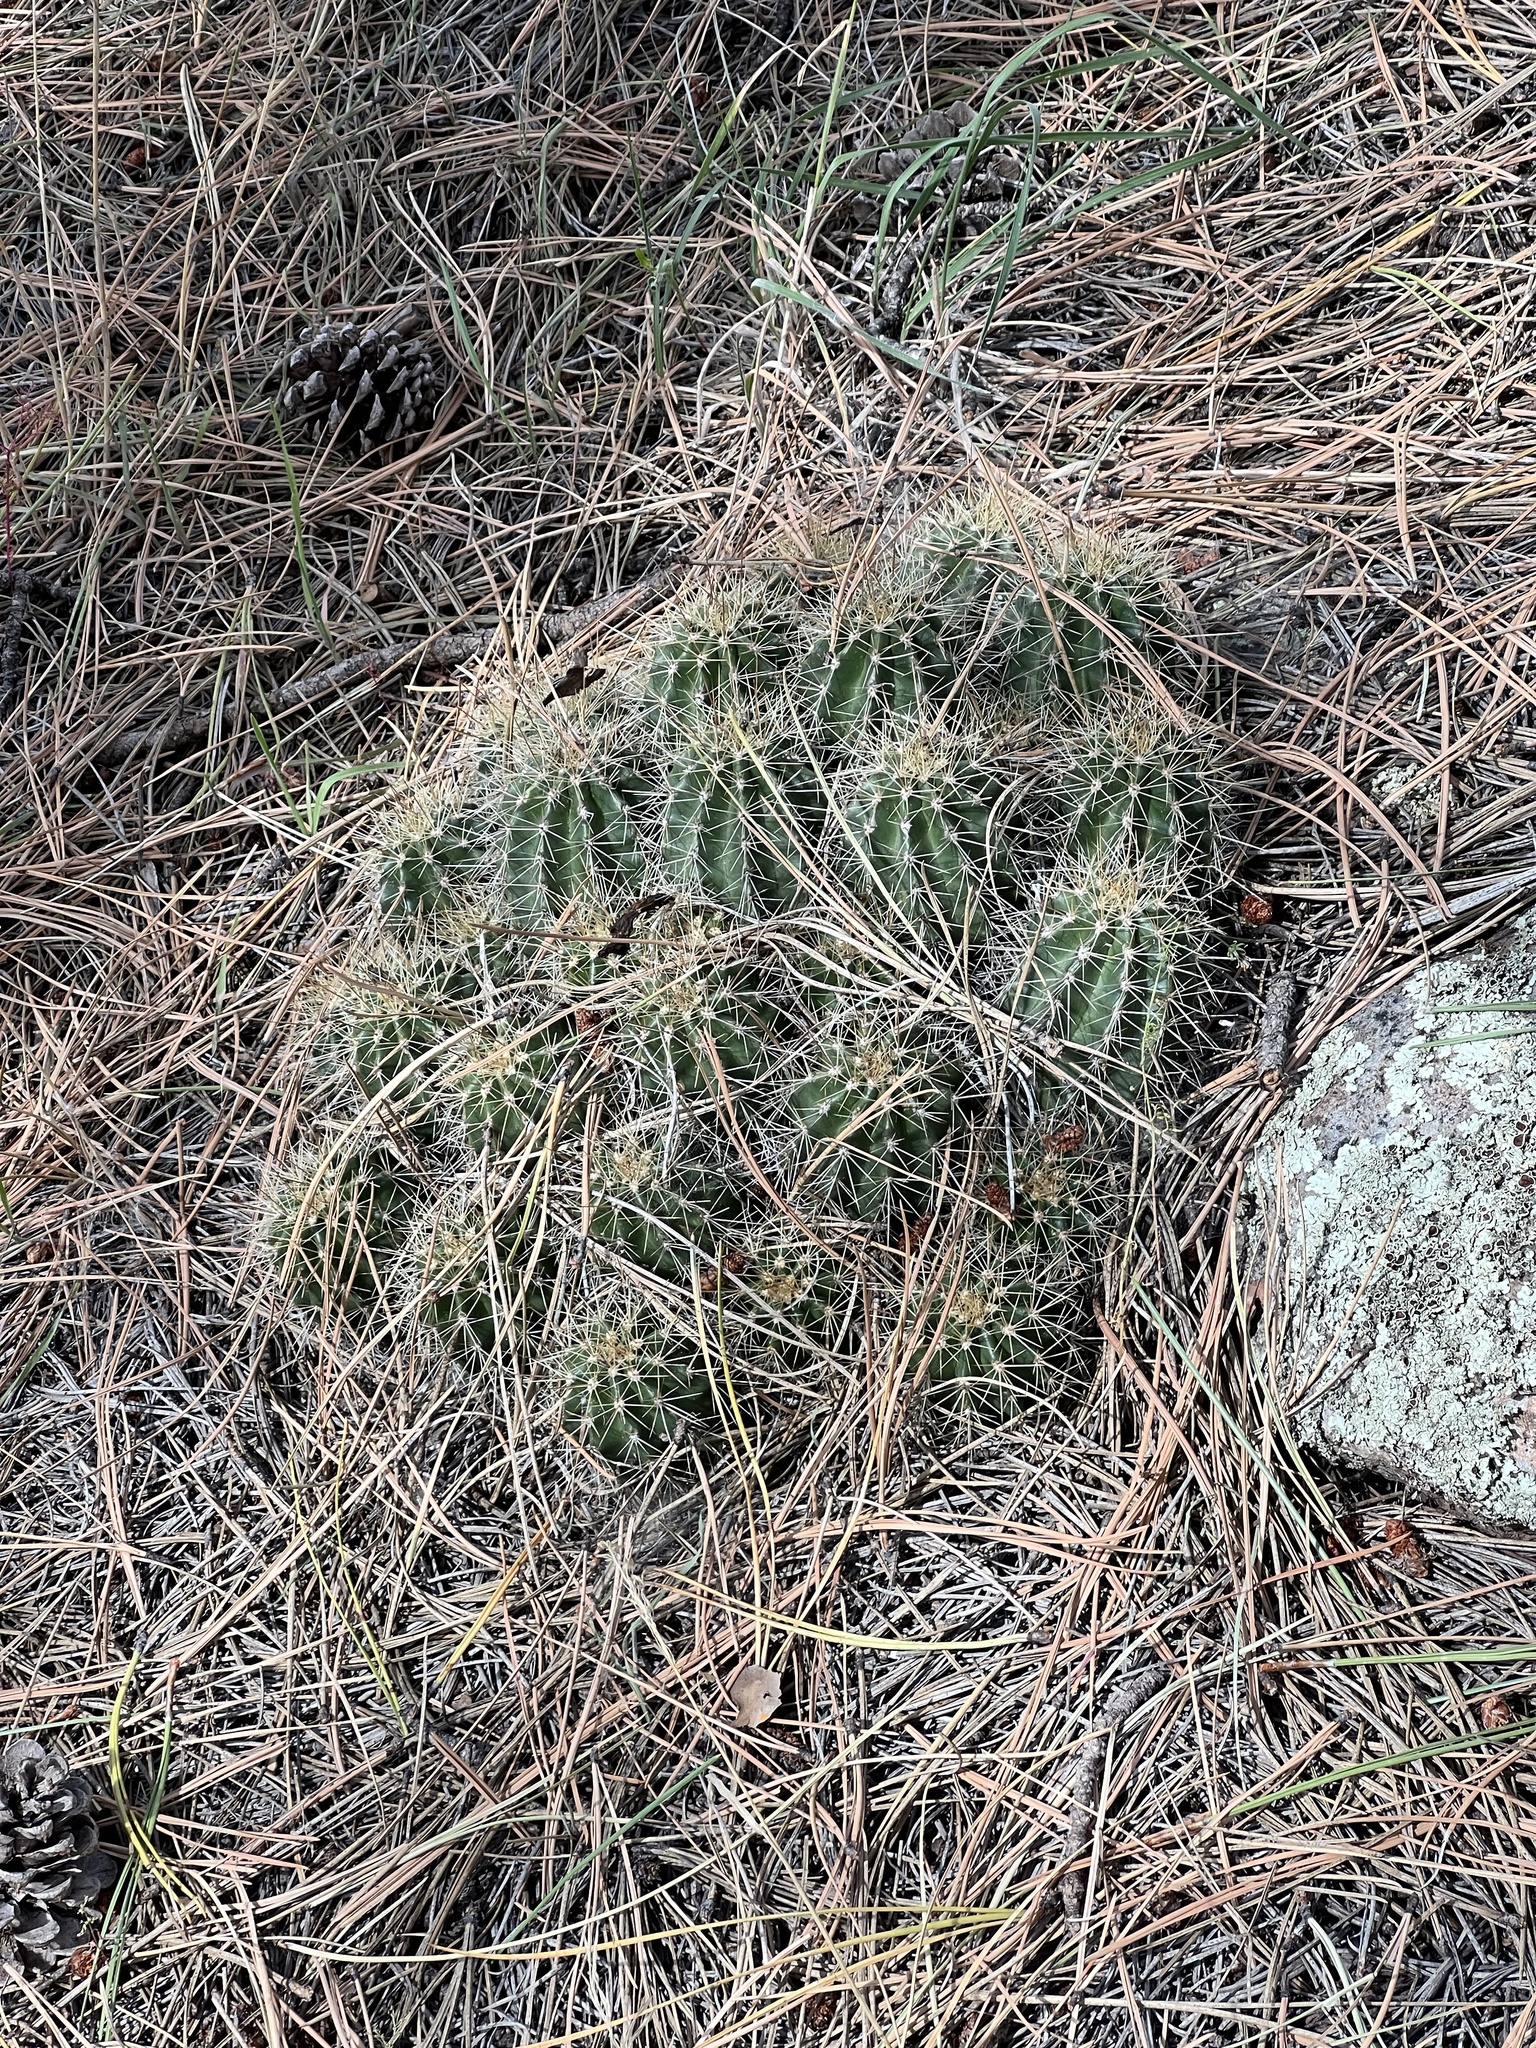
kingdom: Plantae
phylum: Tracheophyta
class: Magnoliopsida
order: Caryophyllales
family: Cactaceae
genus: Echinocereus
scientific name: Echinocereus bakeri
